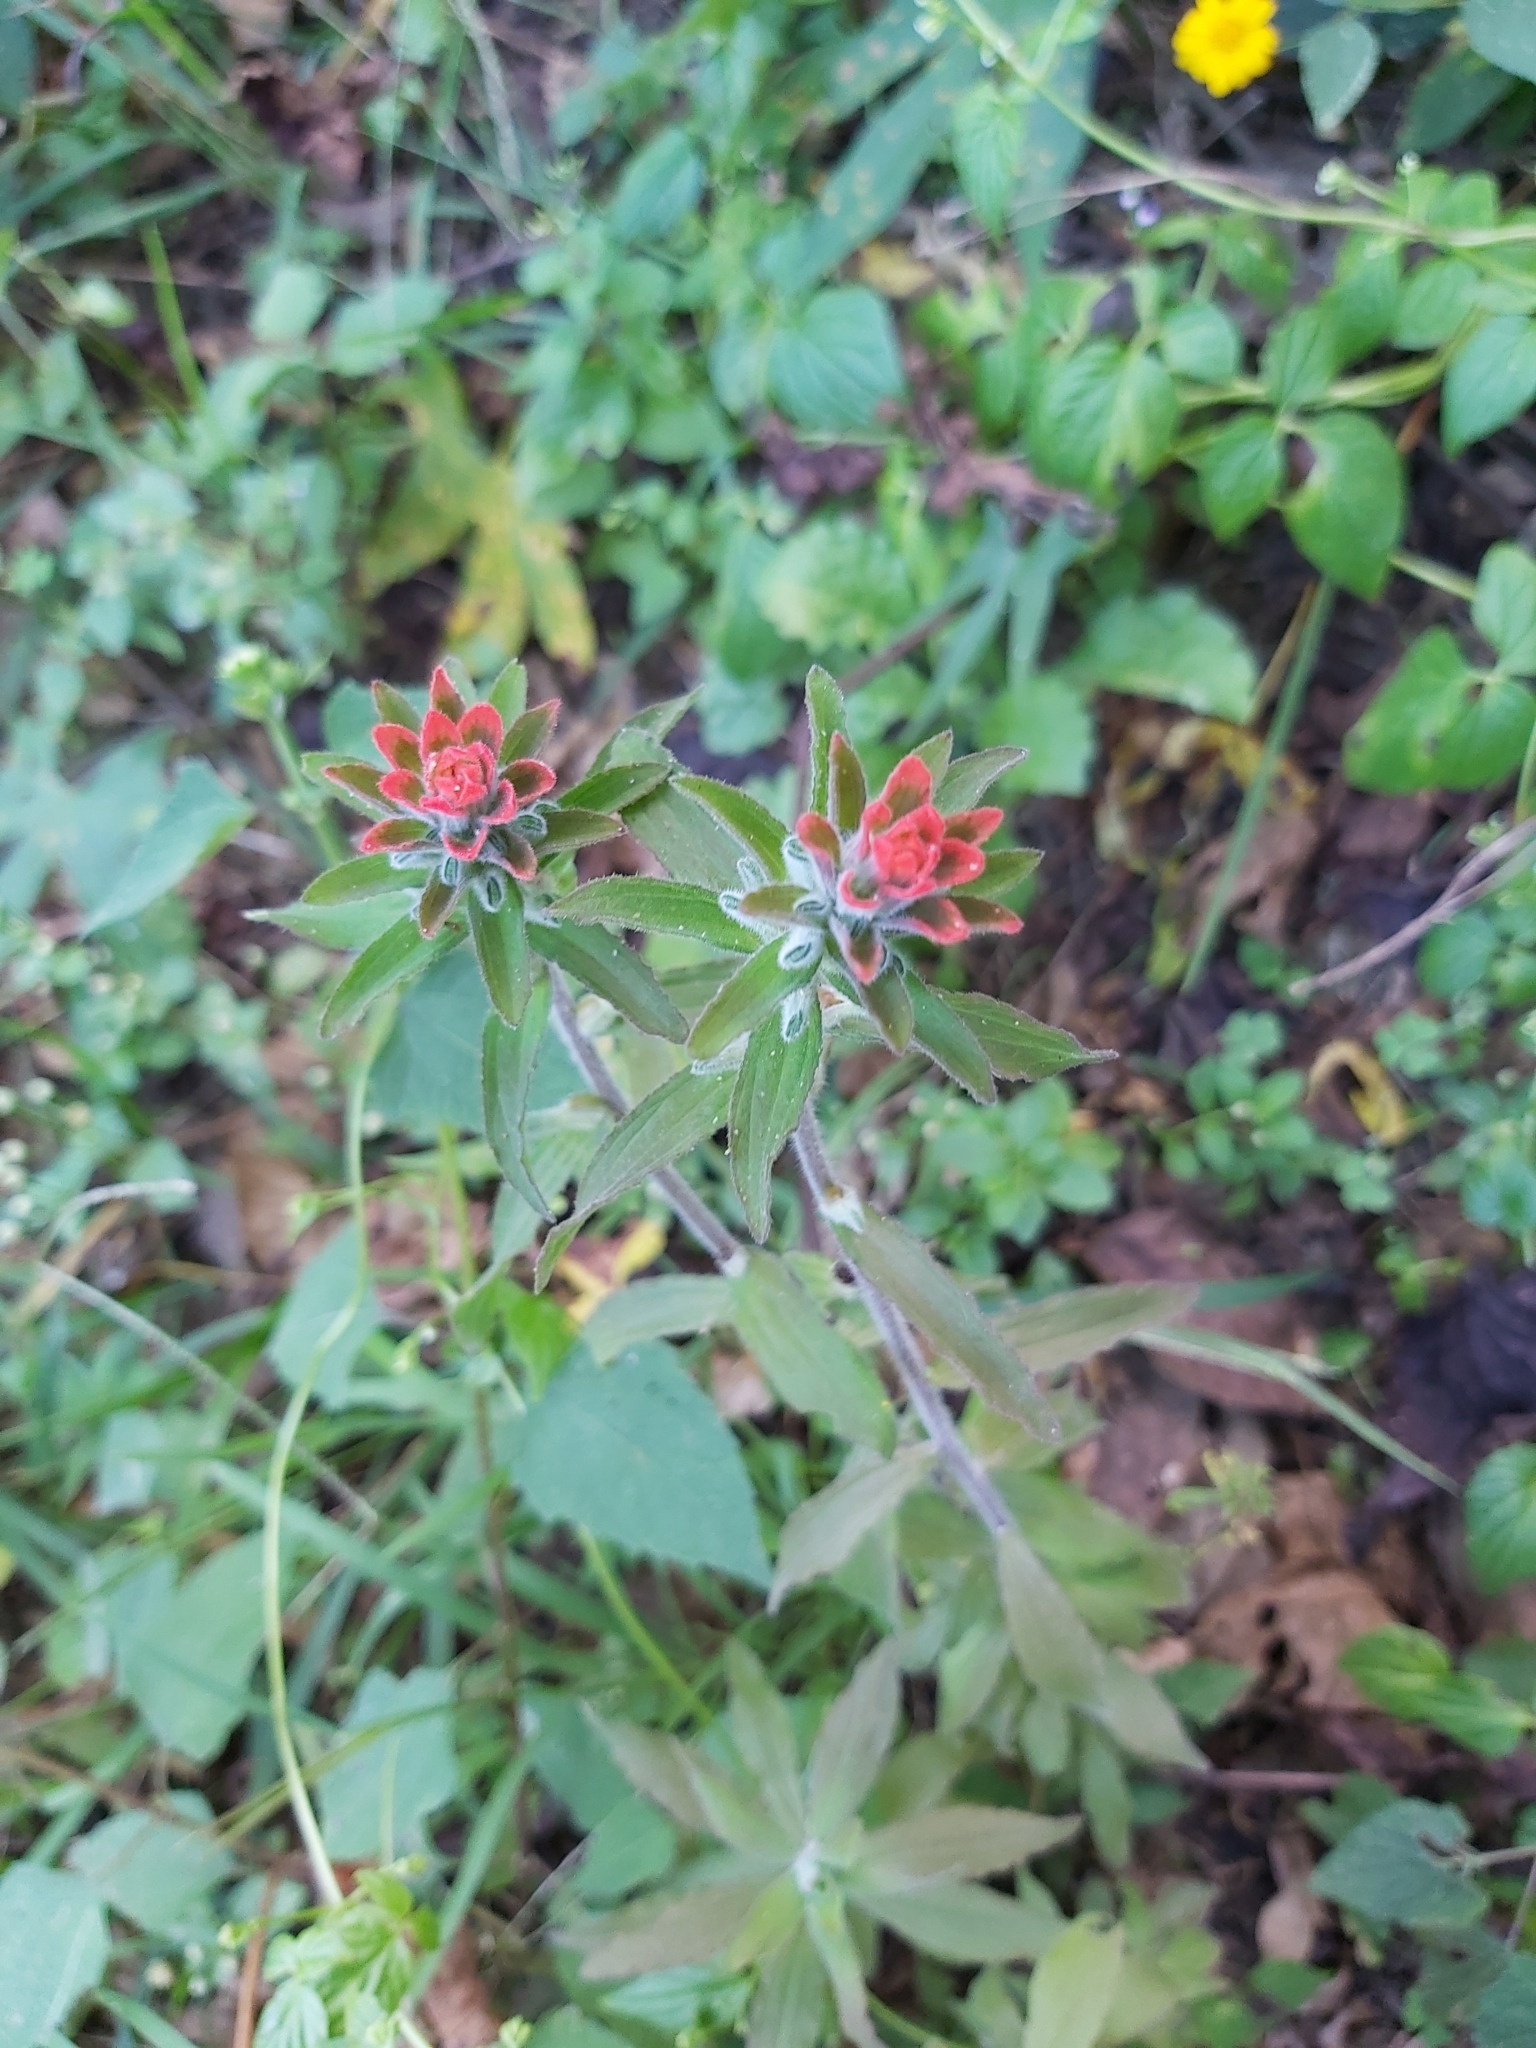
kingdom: Plantae
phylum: Tracheophyta
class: Magnoliopsida
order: Lamiales
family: Orobanchaceae
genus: Castilleja
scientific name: Castilleja arvensis
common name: Indian paintbrush
